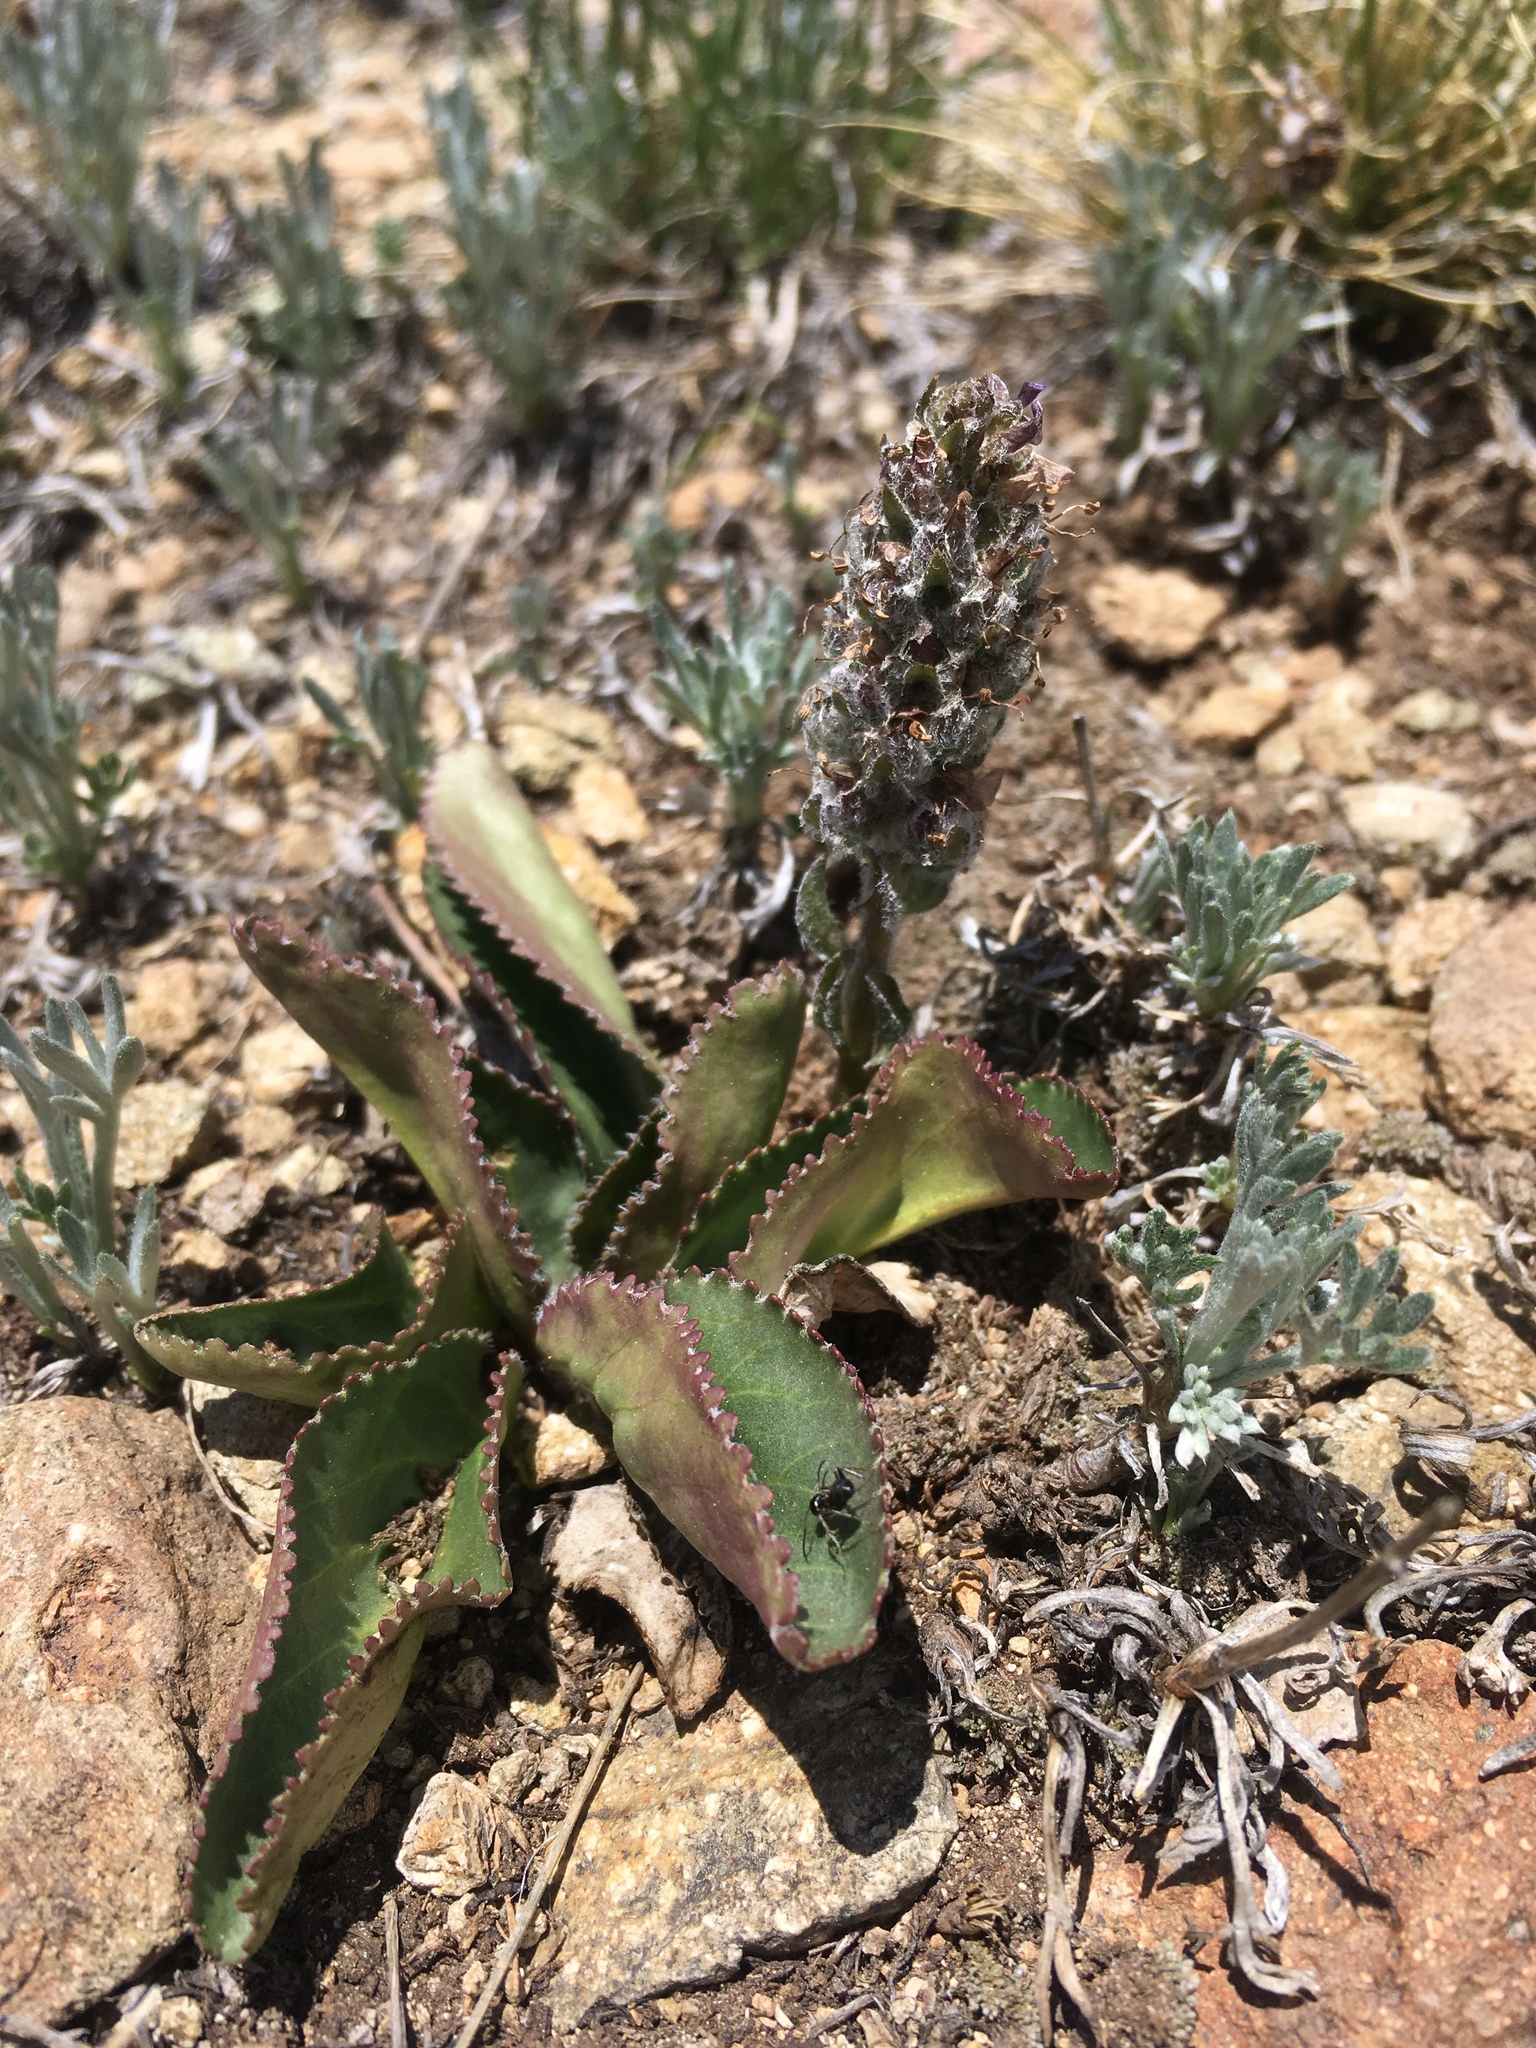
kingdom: Plantae
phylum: Tracheophyta
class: Magnoliopsida
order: Lamiales
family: Plantaginaceae
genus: Synthyris
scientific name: Synthyris alpina
